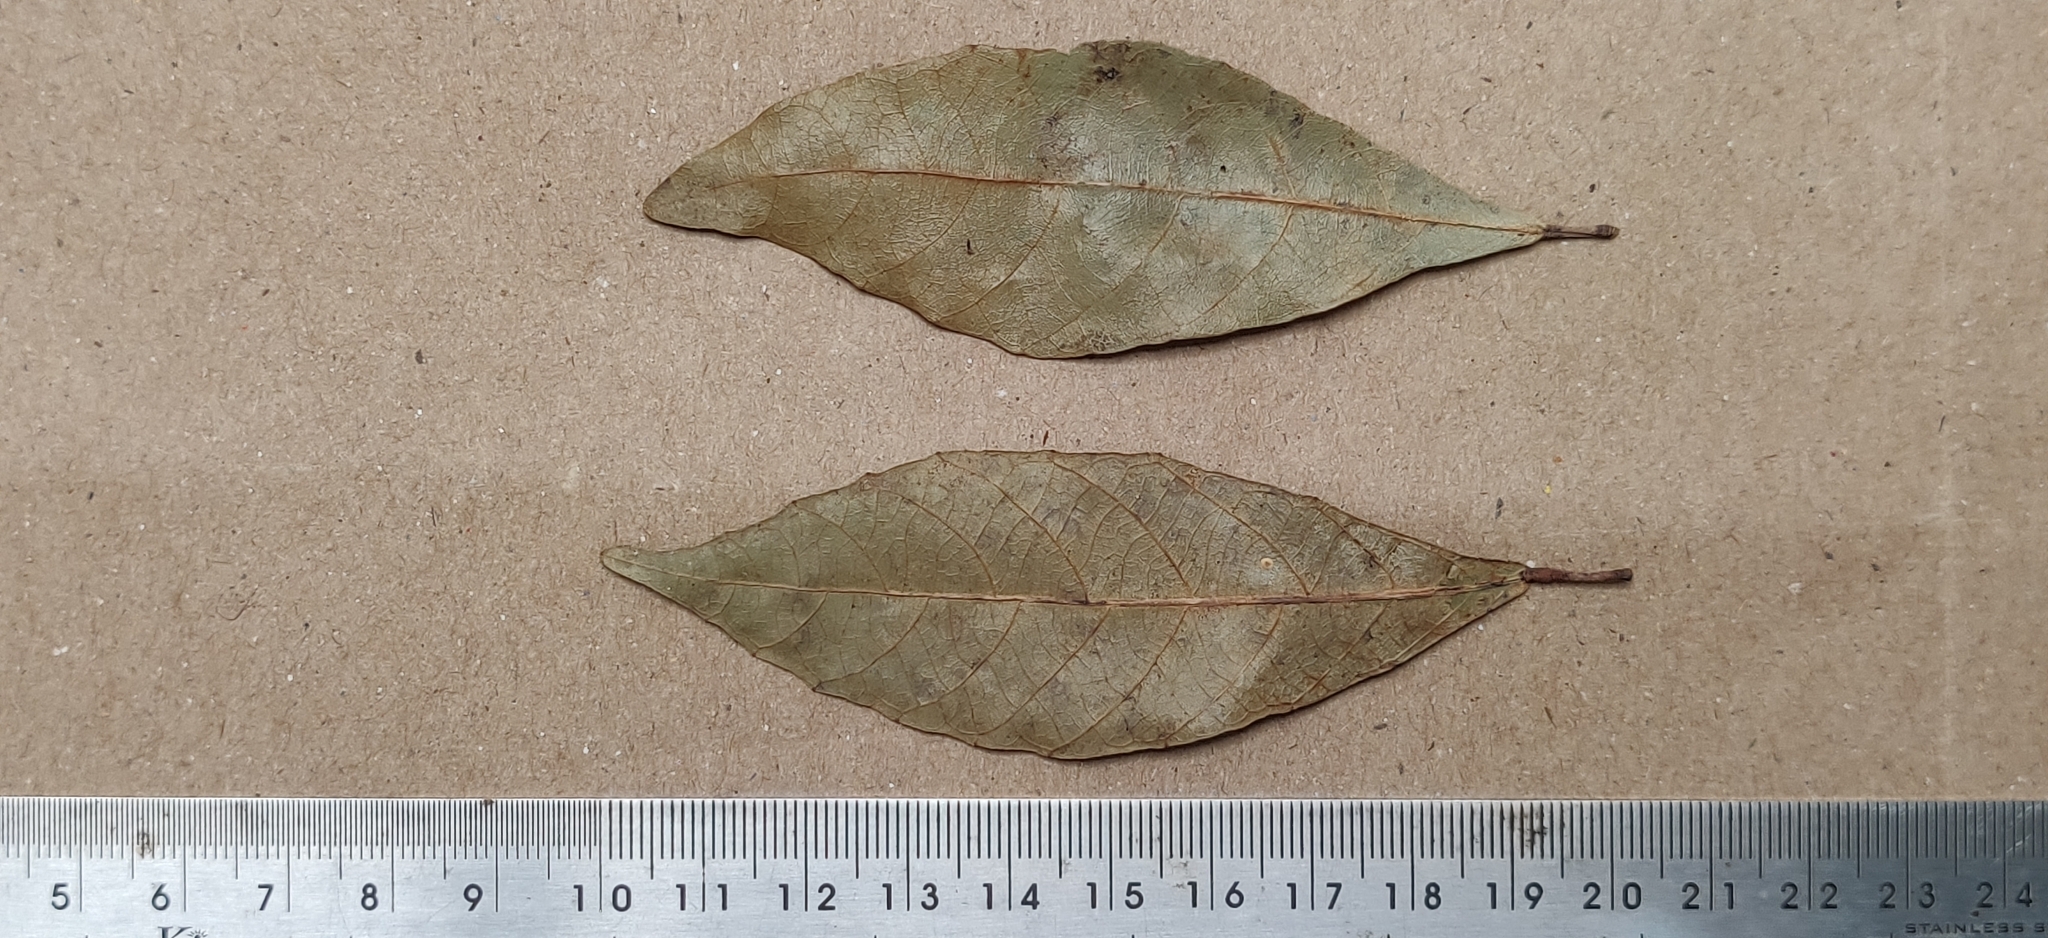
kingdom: Plantae
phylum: Tracheophyta
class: Magnoliopsida
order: Malpighiales
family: Euphorbiaceae
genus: Mallotus
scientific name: Mallotus resinosus
